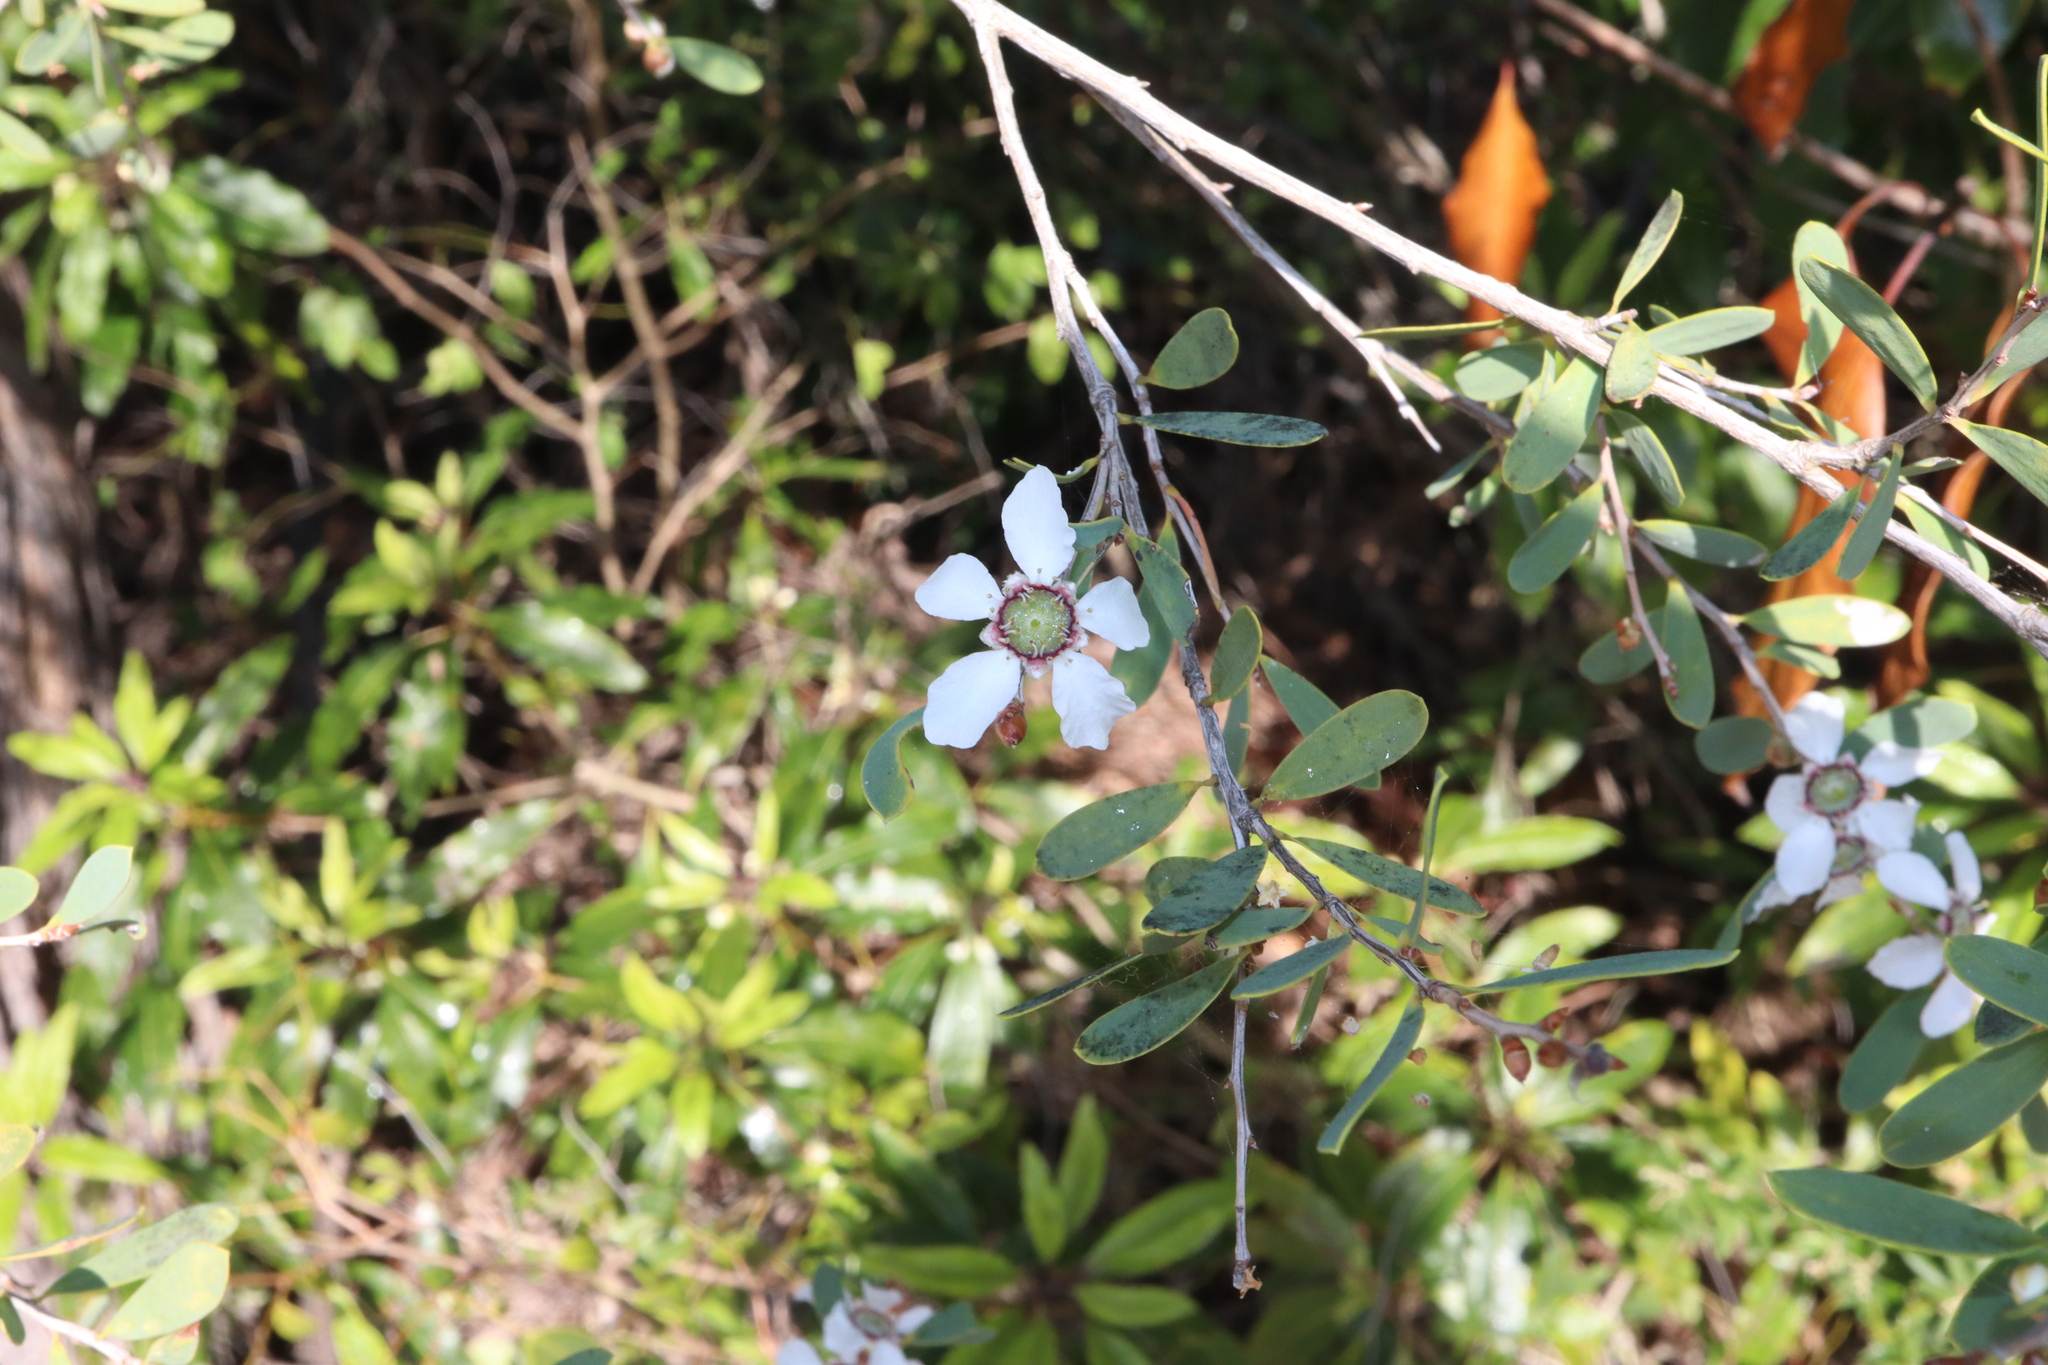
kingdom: Plantae
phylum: Tracheophyta
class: Magnoliopsida
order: Myrtales
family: Myrtaceae
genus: Leptospermum
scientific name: Leptospermum laevigatum
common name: Australian teatree
